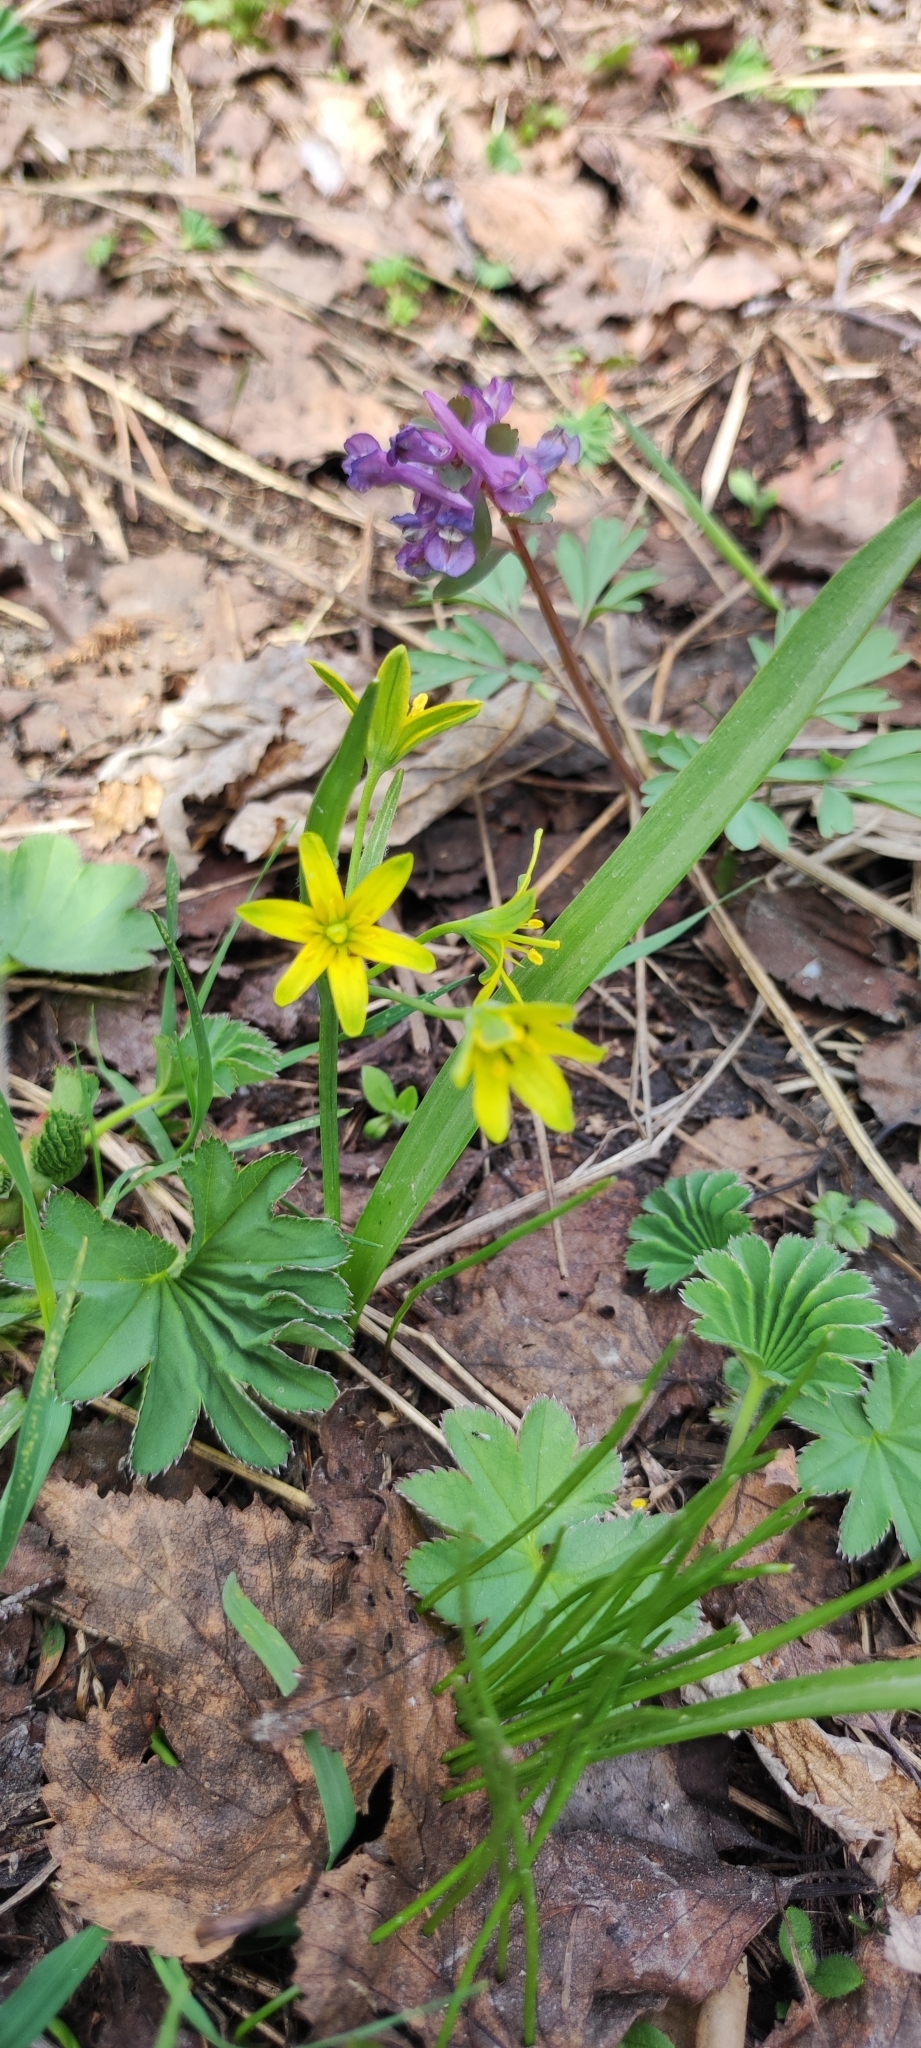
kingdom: Plantae
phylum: Tracheophyta
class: Liliopsida
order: Liliales
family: Liliaceae
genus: Gagea
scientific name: Gagea lutea
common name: Yellow star-of-bethlehem
